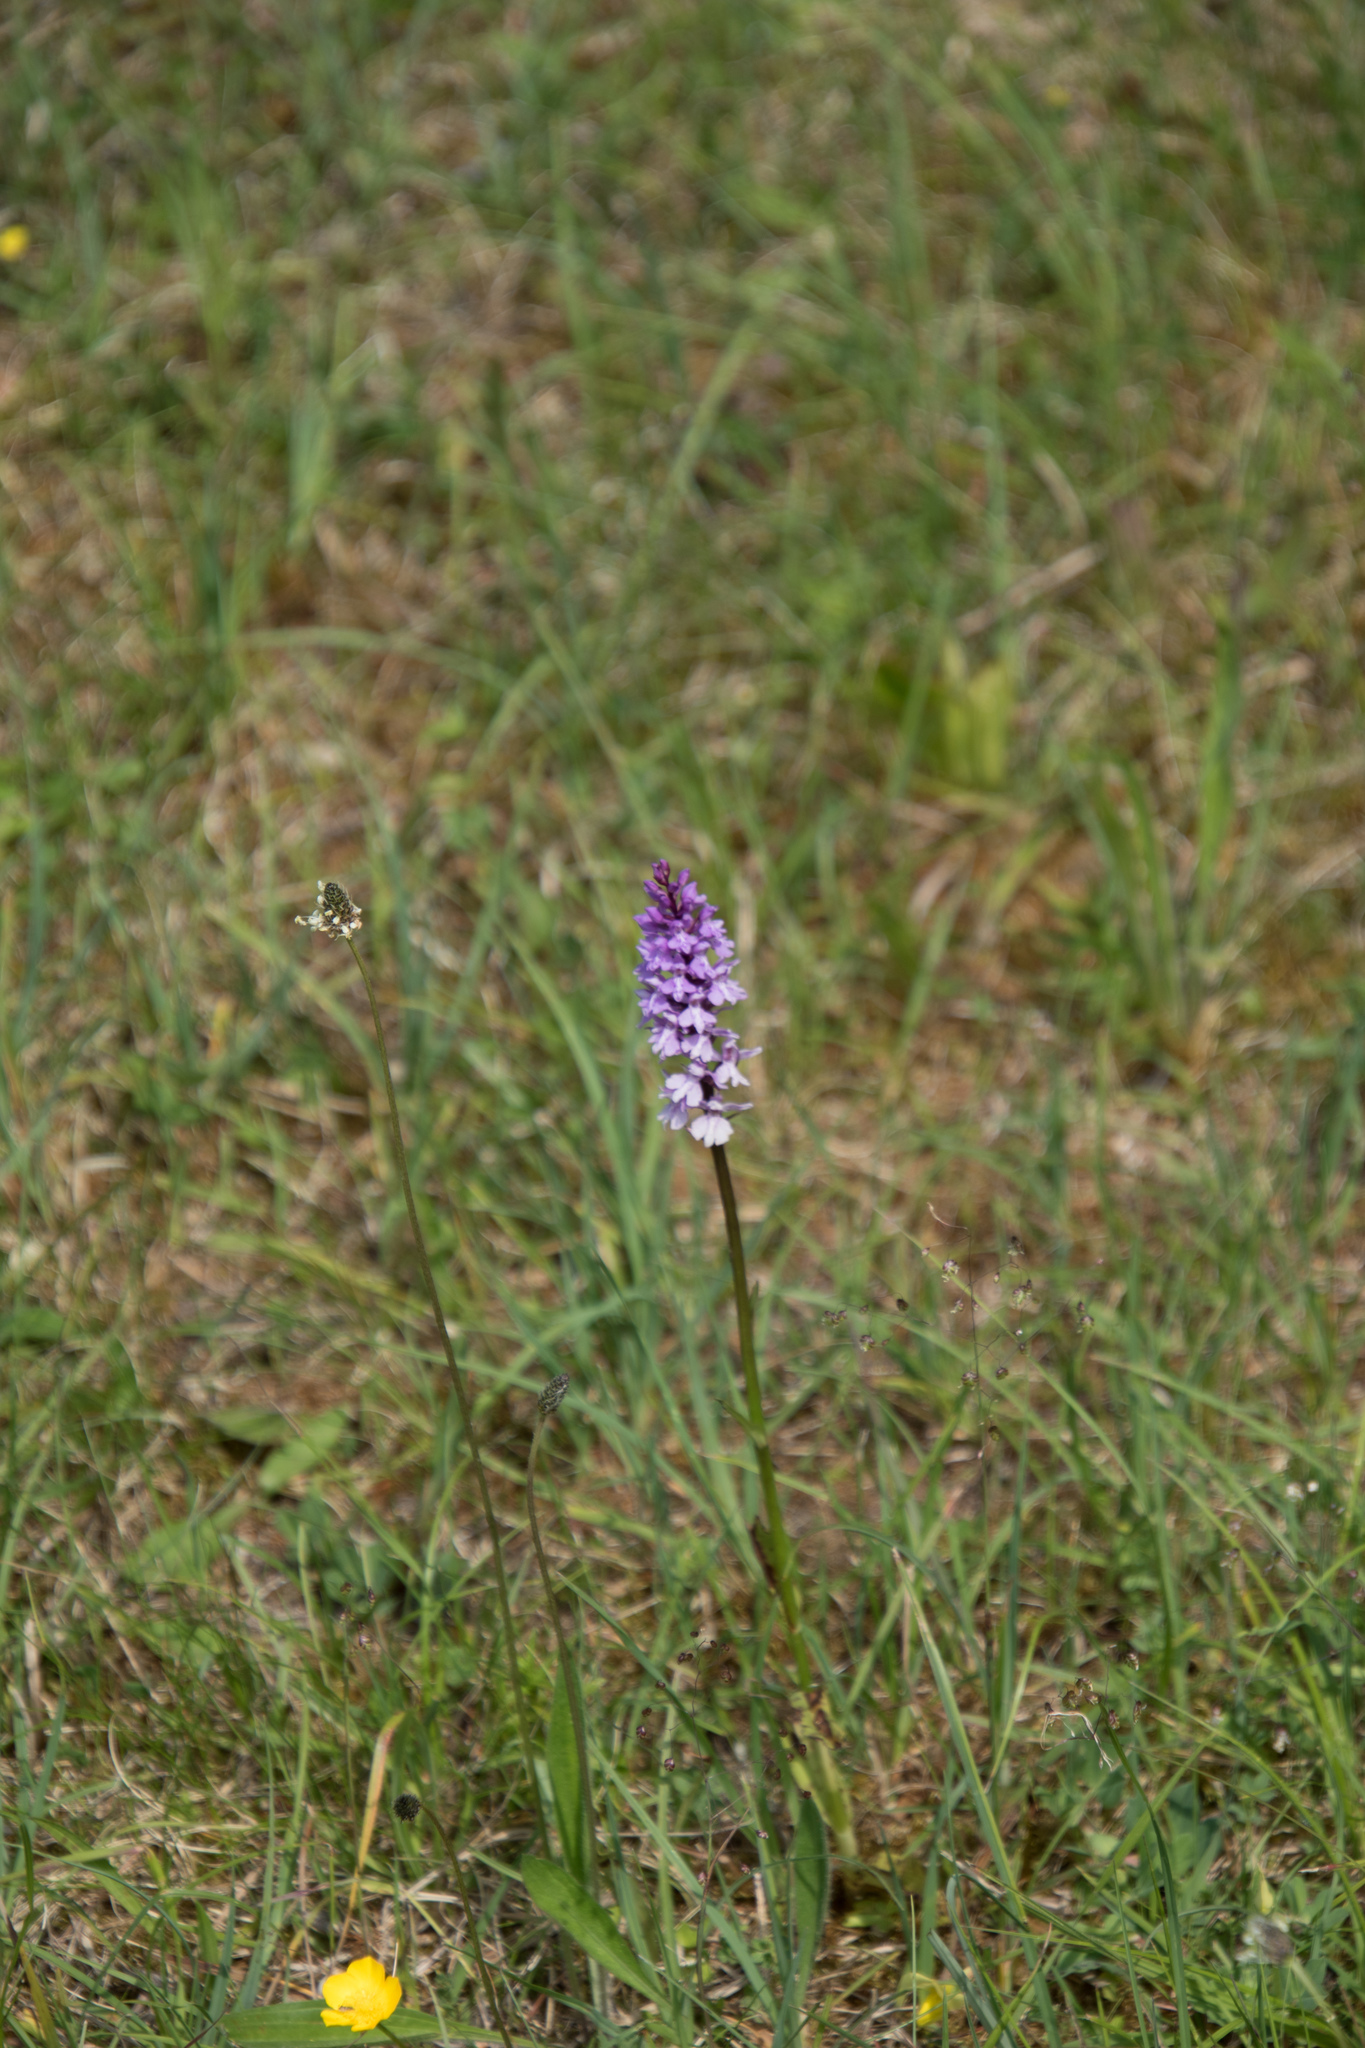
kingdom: Plantae
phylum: Tracheophyta
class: Liliopsida
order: Asparagales
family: Orchidaceae
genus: Dactylorhiza
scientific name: Dactylorhiza maculata
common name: Heath spotted-orchid
